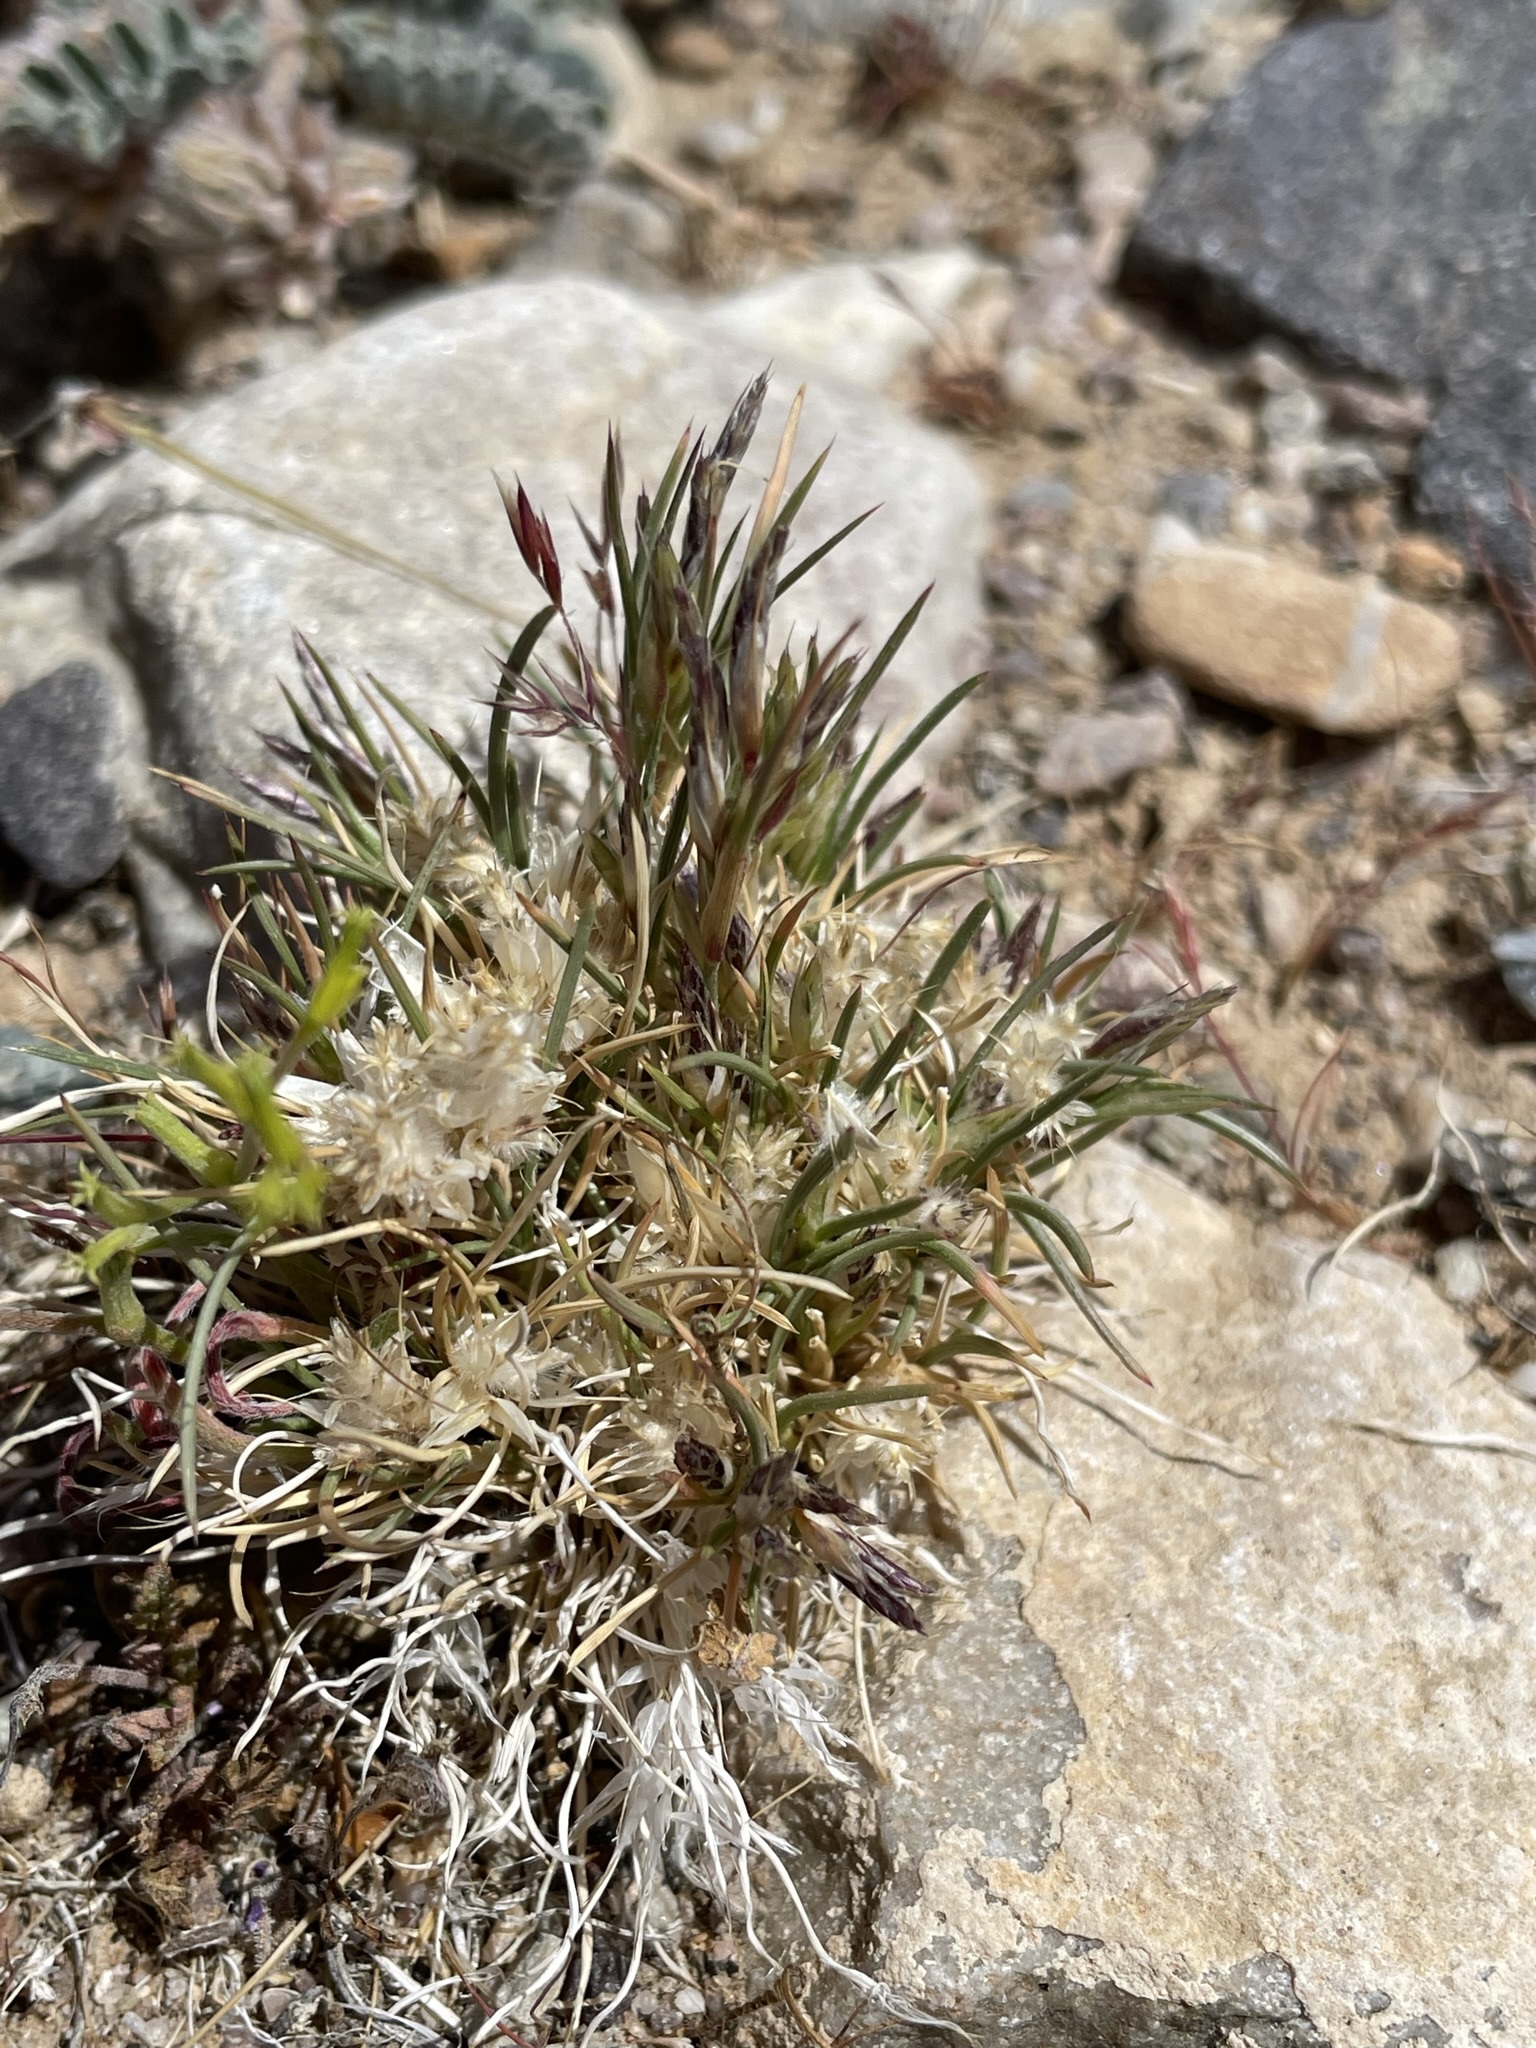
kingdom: Plantae
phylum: Tracheophyta
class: Liliopsida
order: Poales
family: Poaceae
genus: Dasyochloa
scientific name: Dasyochloa pulchella
